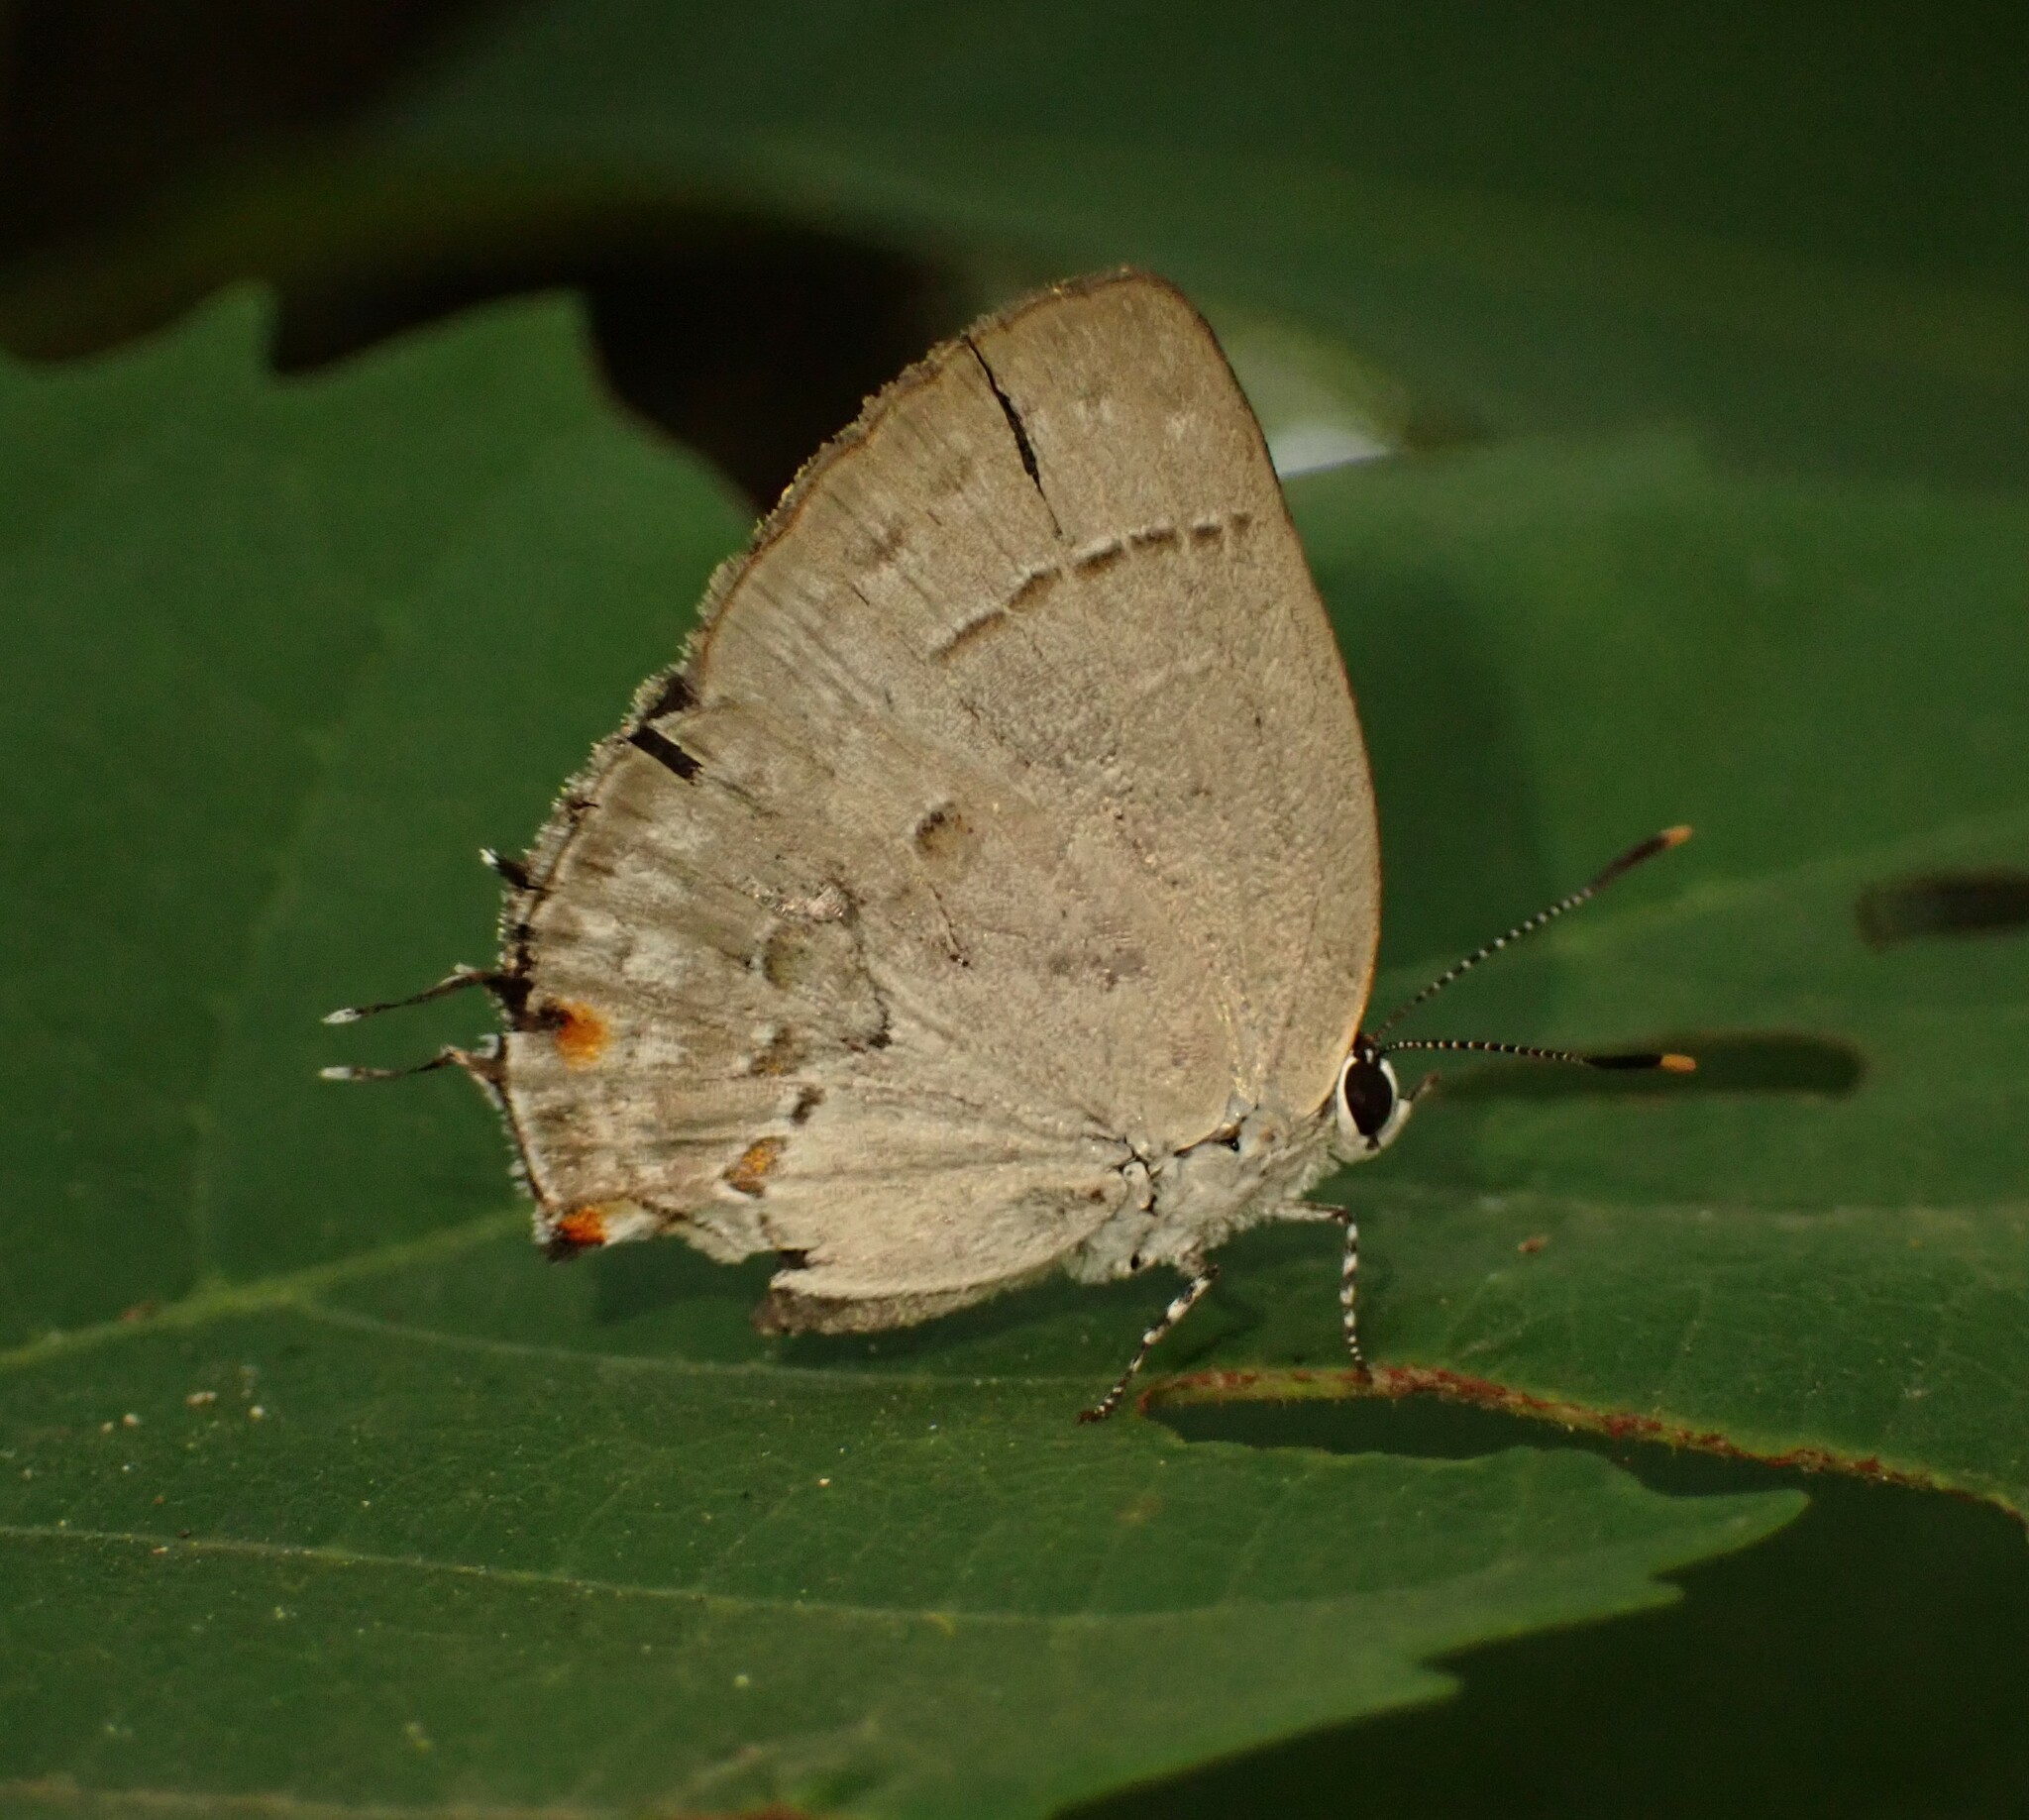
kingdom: Animalia
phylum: Arthropoda
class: Insecta
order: Lepidoptera
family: Lycaenidae
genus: Thecla
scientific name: Thecla philinna
